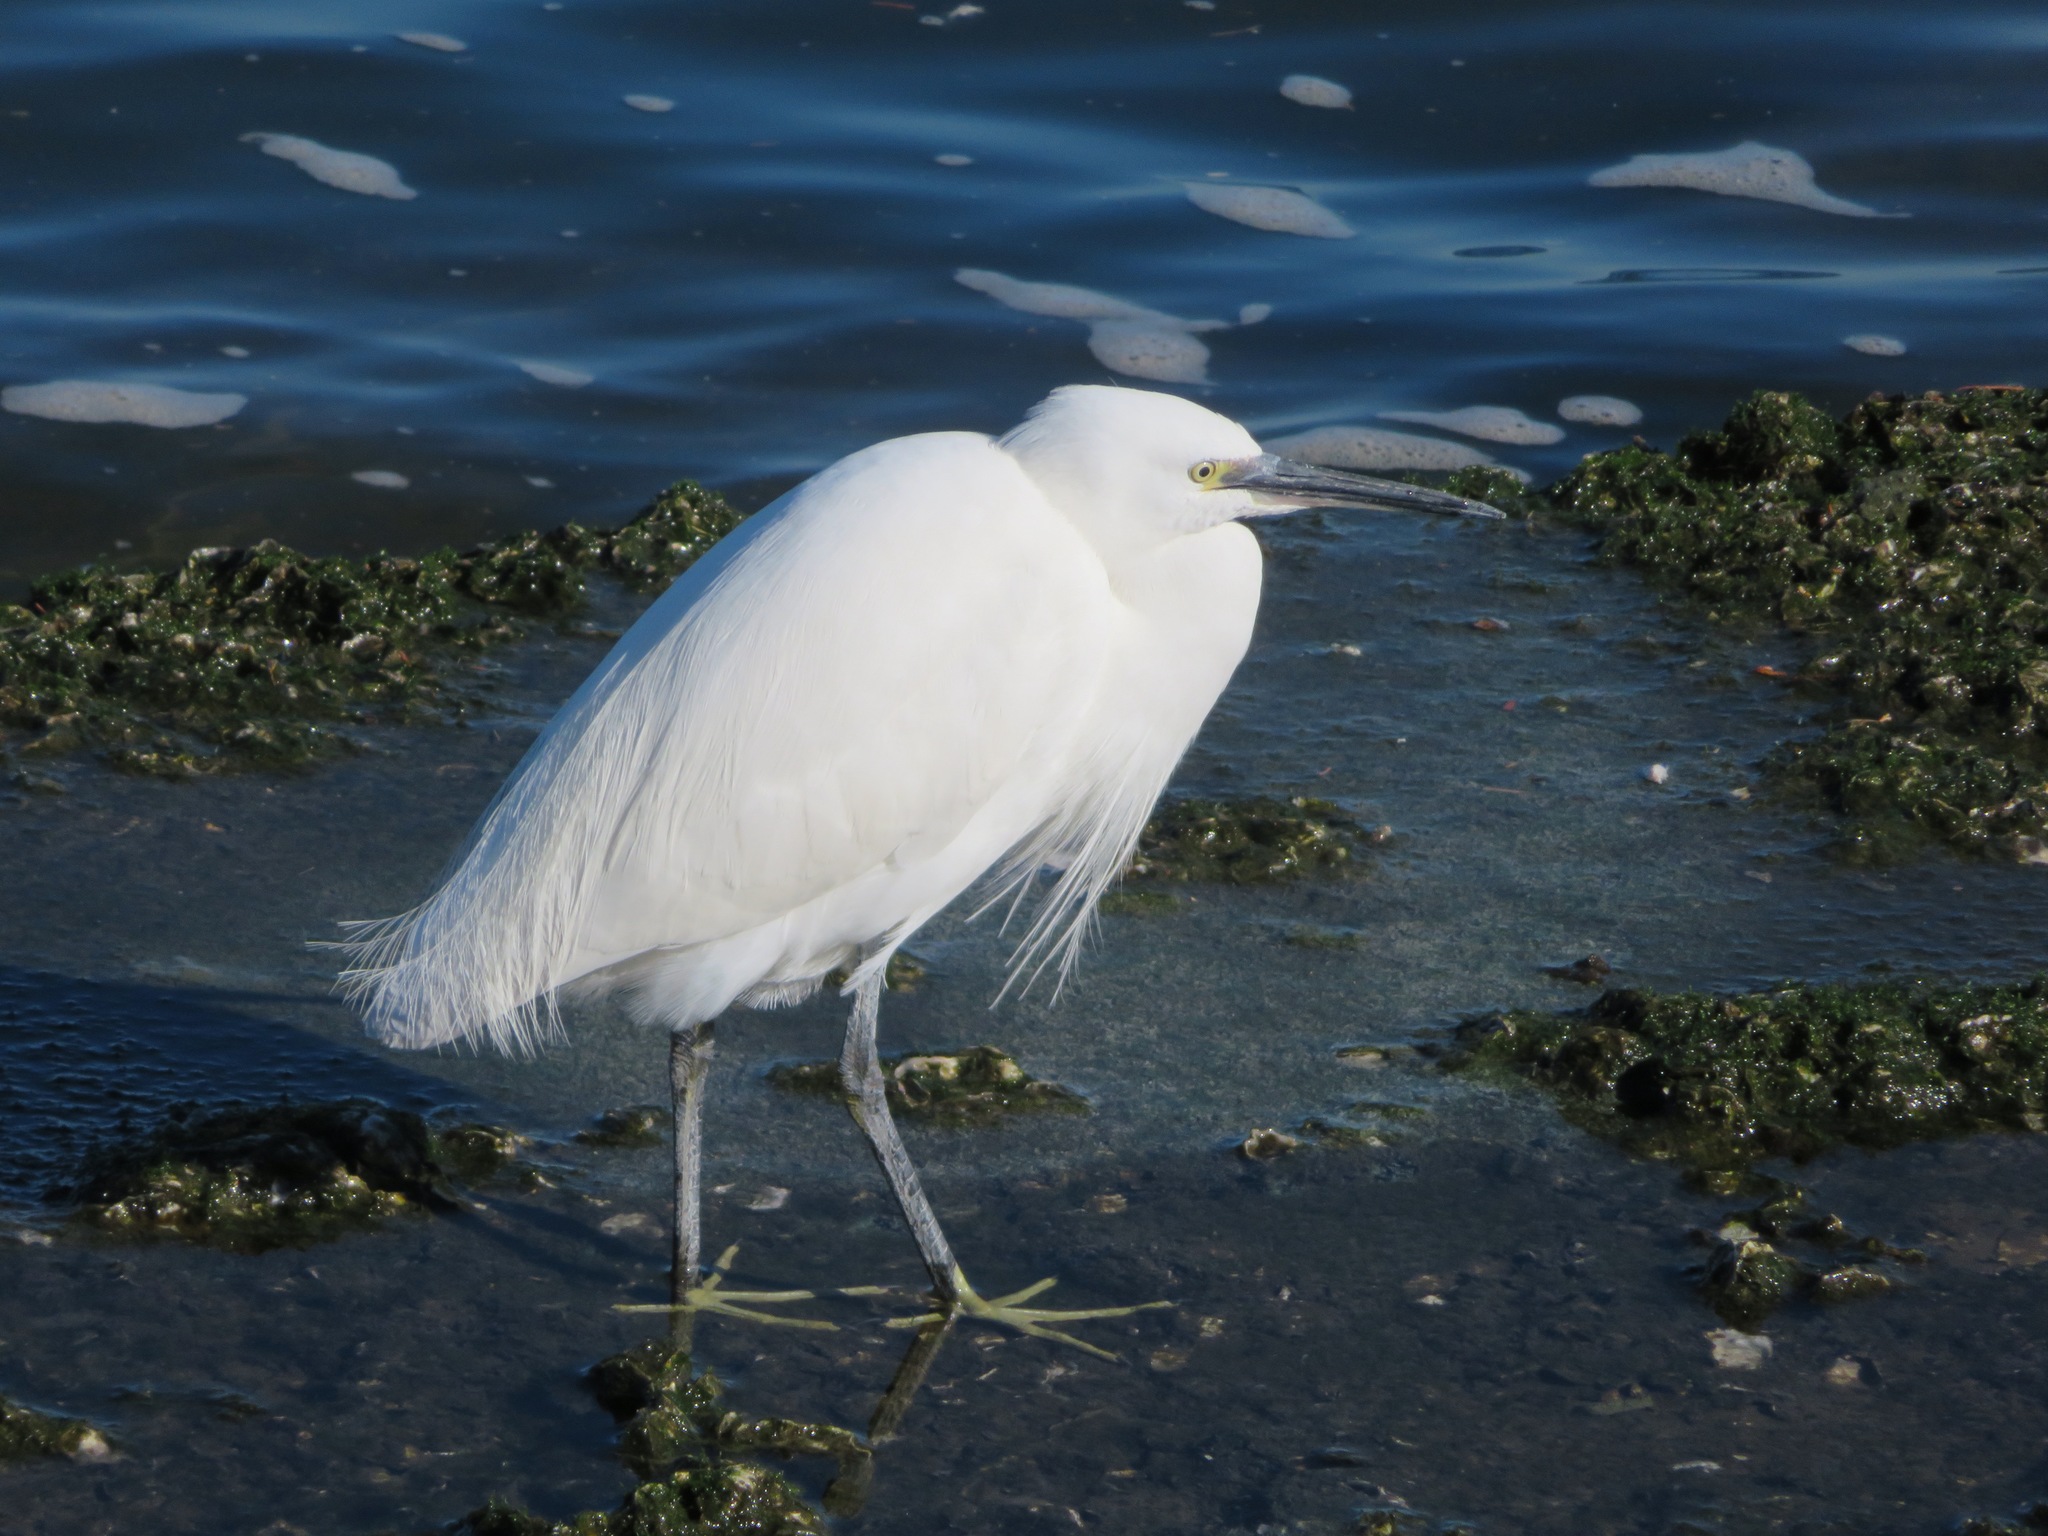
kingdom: Animalia
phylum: Chordata
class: Aves
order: Pelecaniformes
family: Ardeidae
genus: Egretta
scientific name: Egretta garzetta
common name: Little egret
